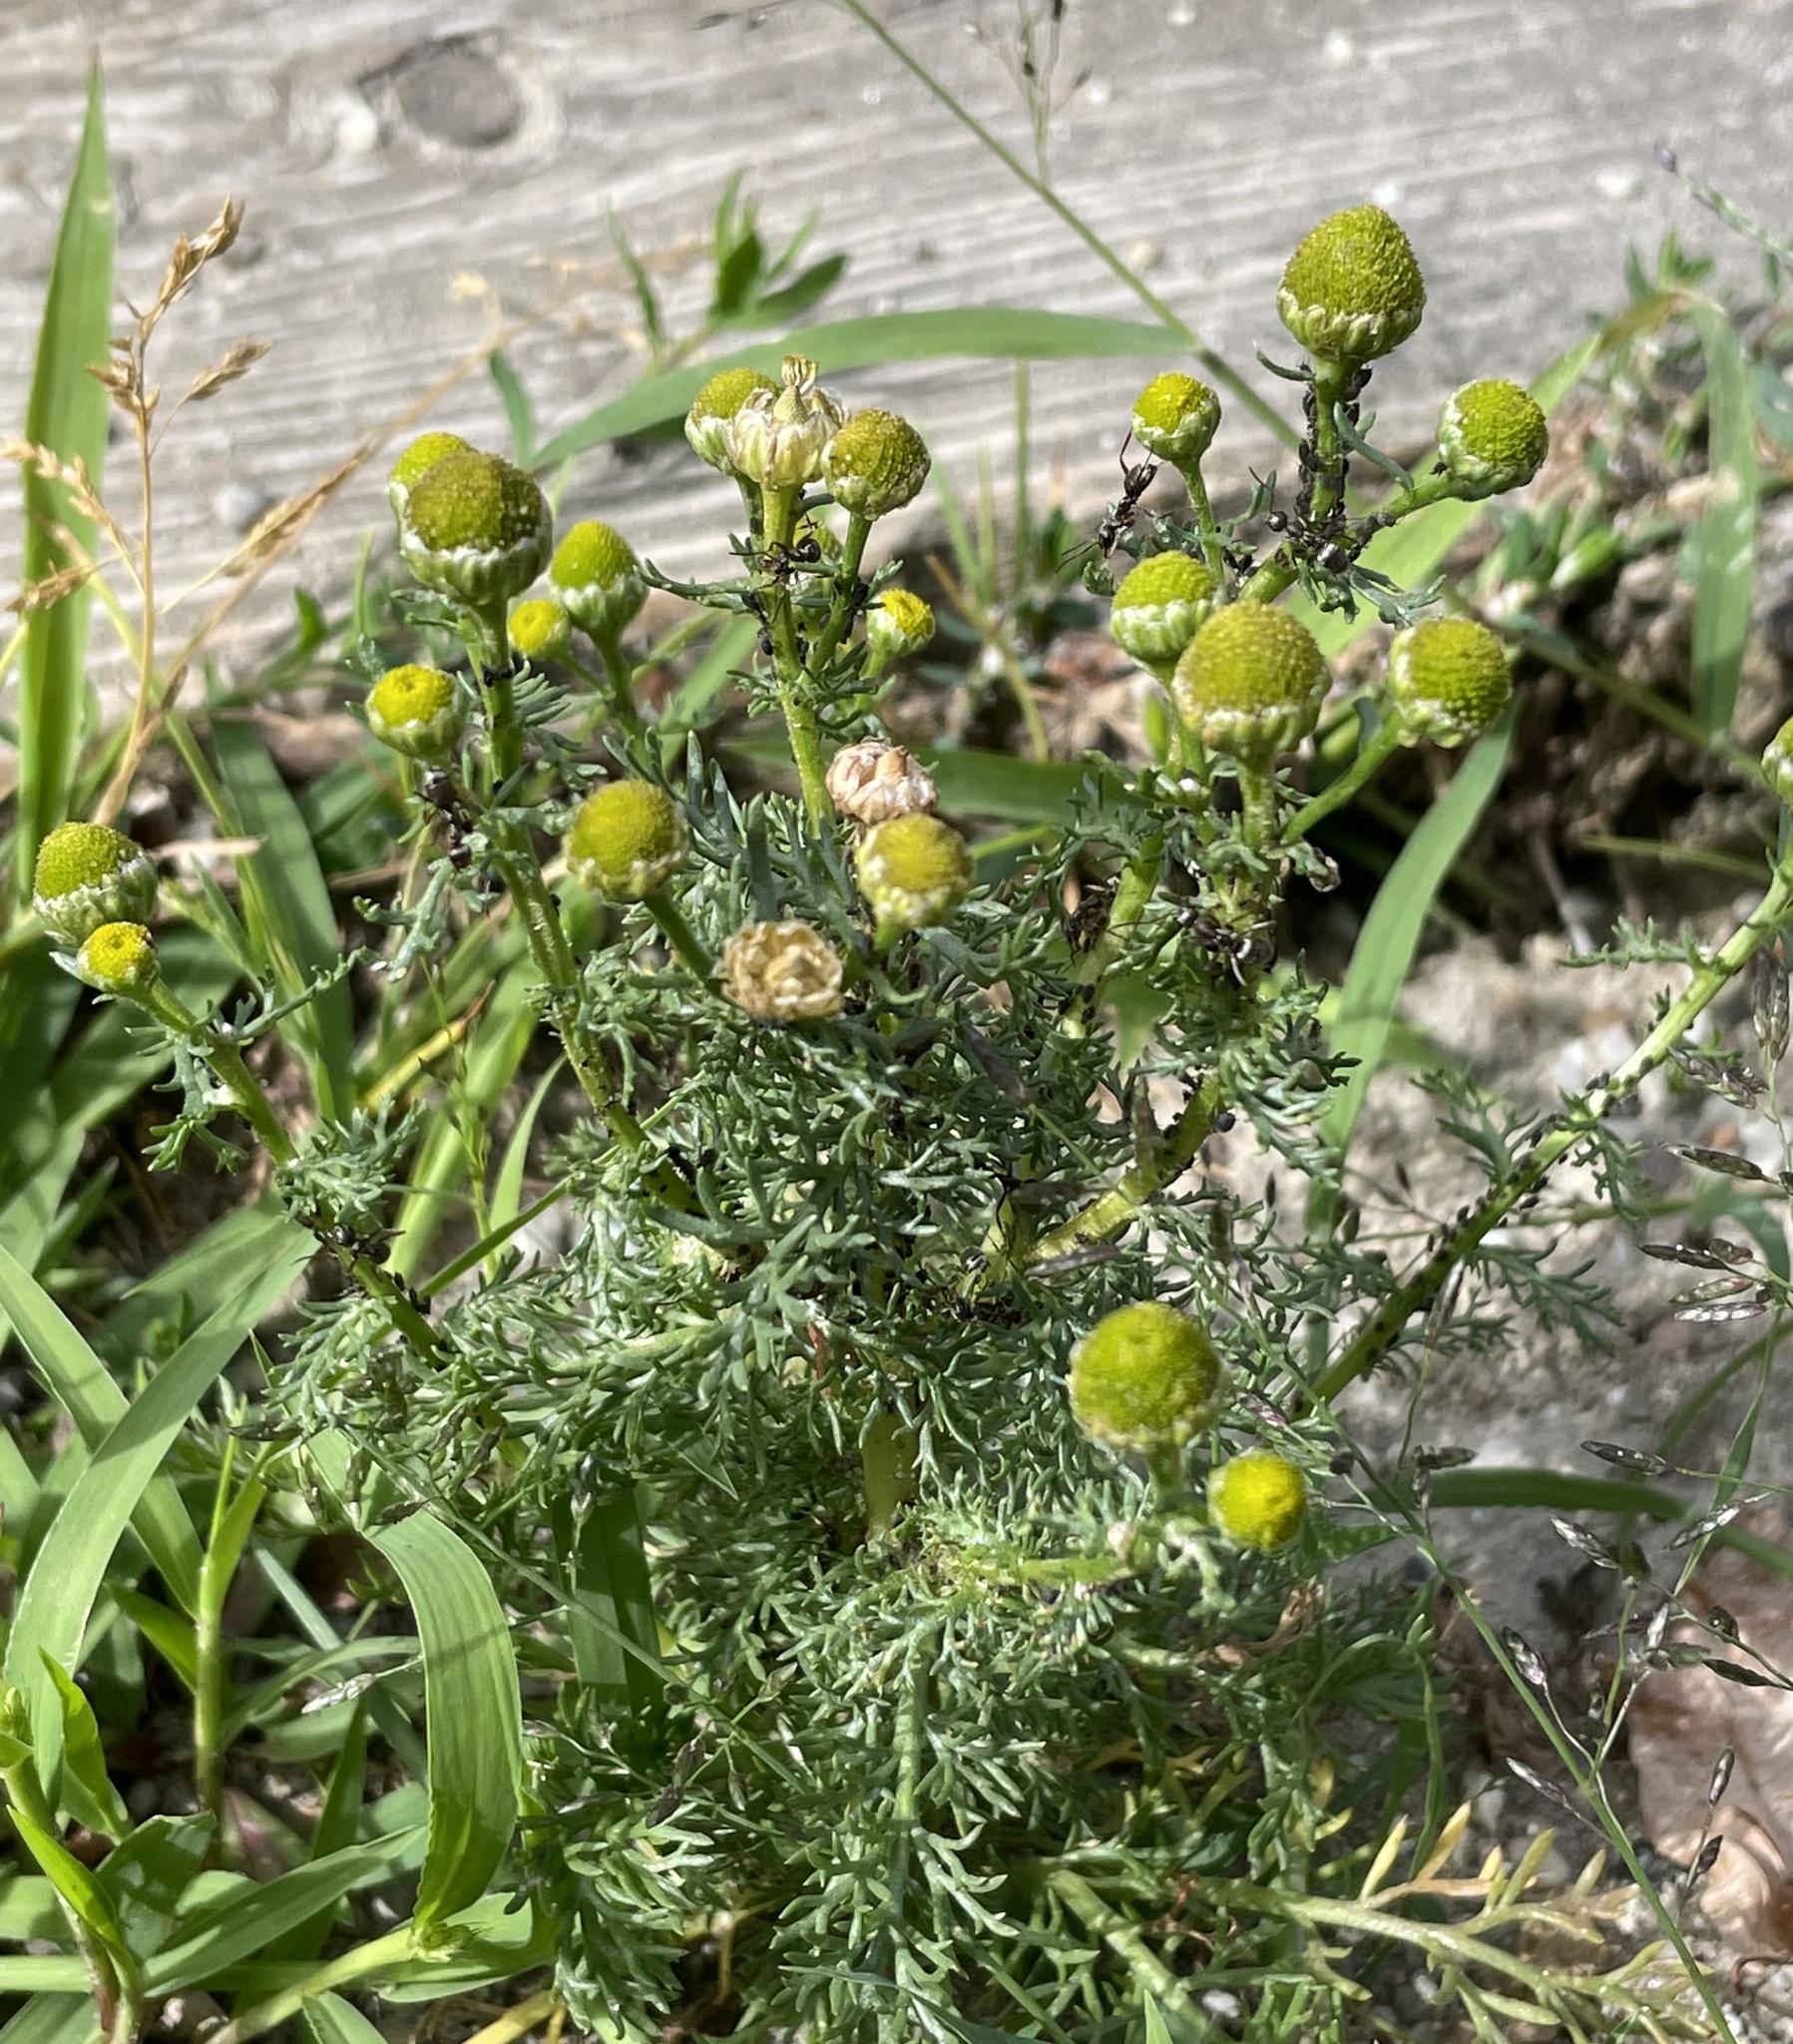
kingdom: Plantae
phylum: Tracheophyta
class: Magnoliopsida
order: Asterales
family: Asteraceae
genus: Matricaria
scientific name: Matricaria discoidea
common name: Disc mayweed
